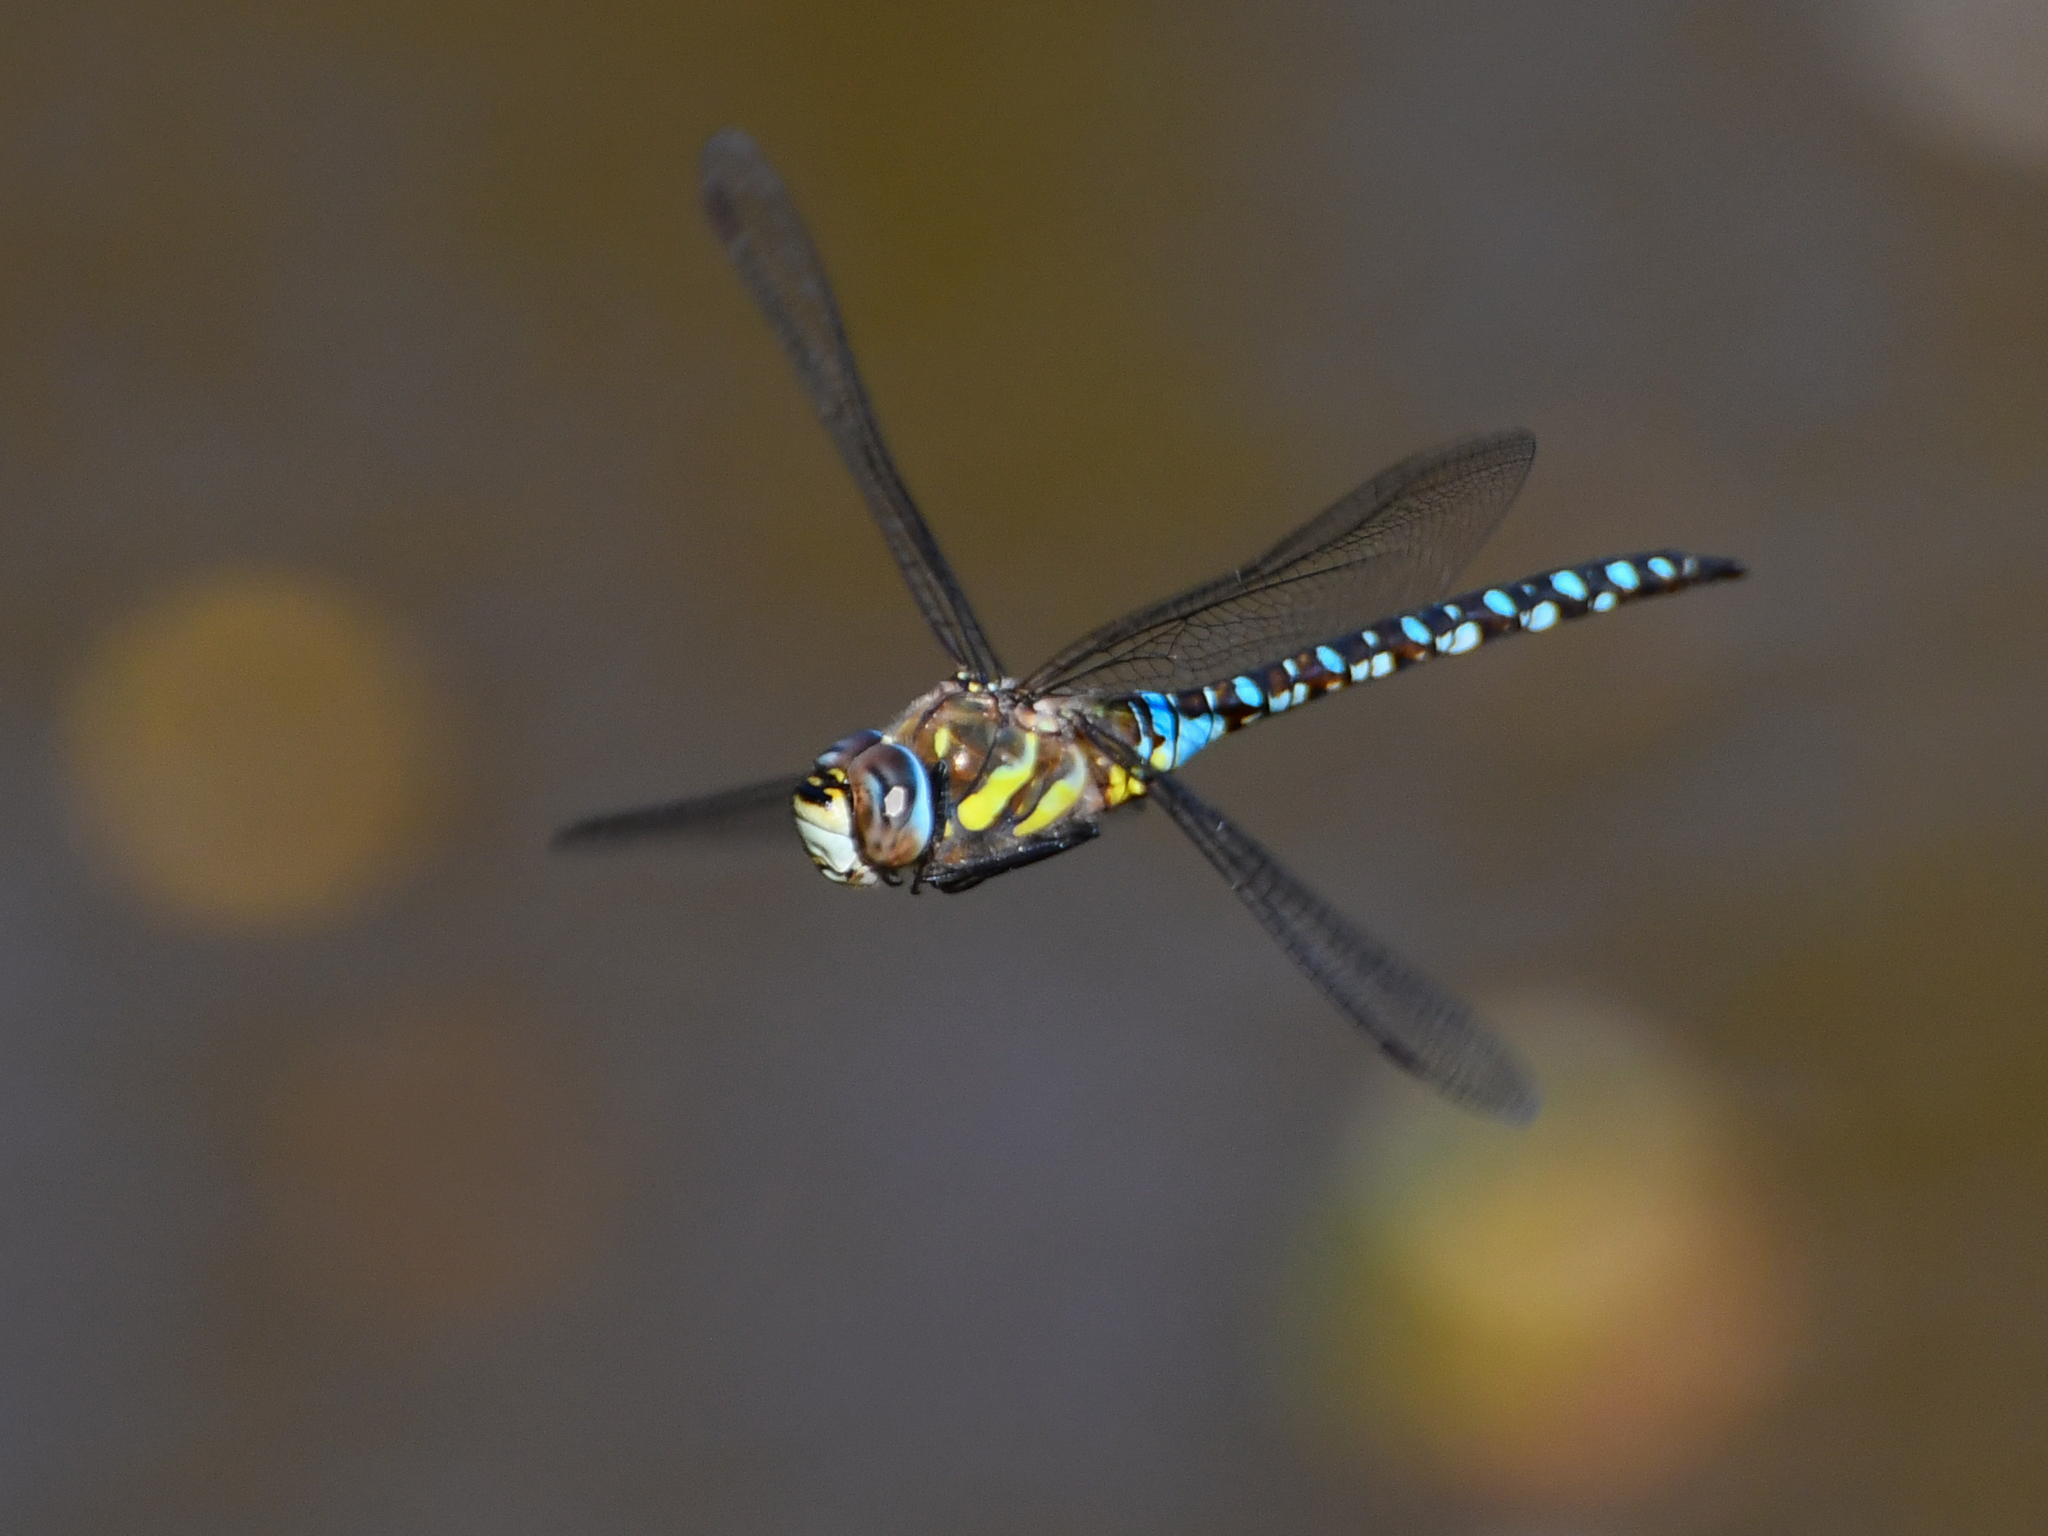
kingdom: Animalia
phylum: Arthropoda
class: Insecta
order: Odonata
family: Aeshnidae
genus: Aeshna
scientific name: Aeshna mixta
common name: Migrant hawker
